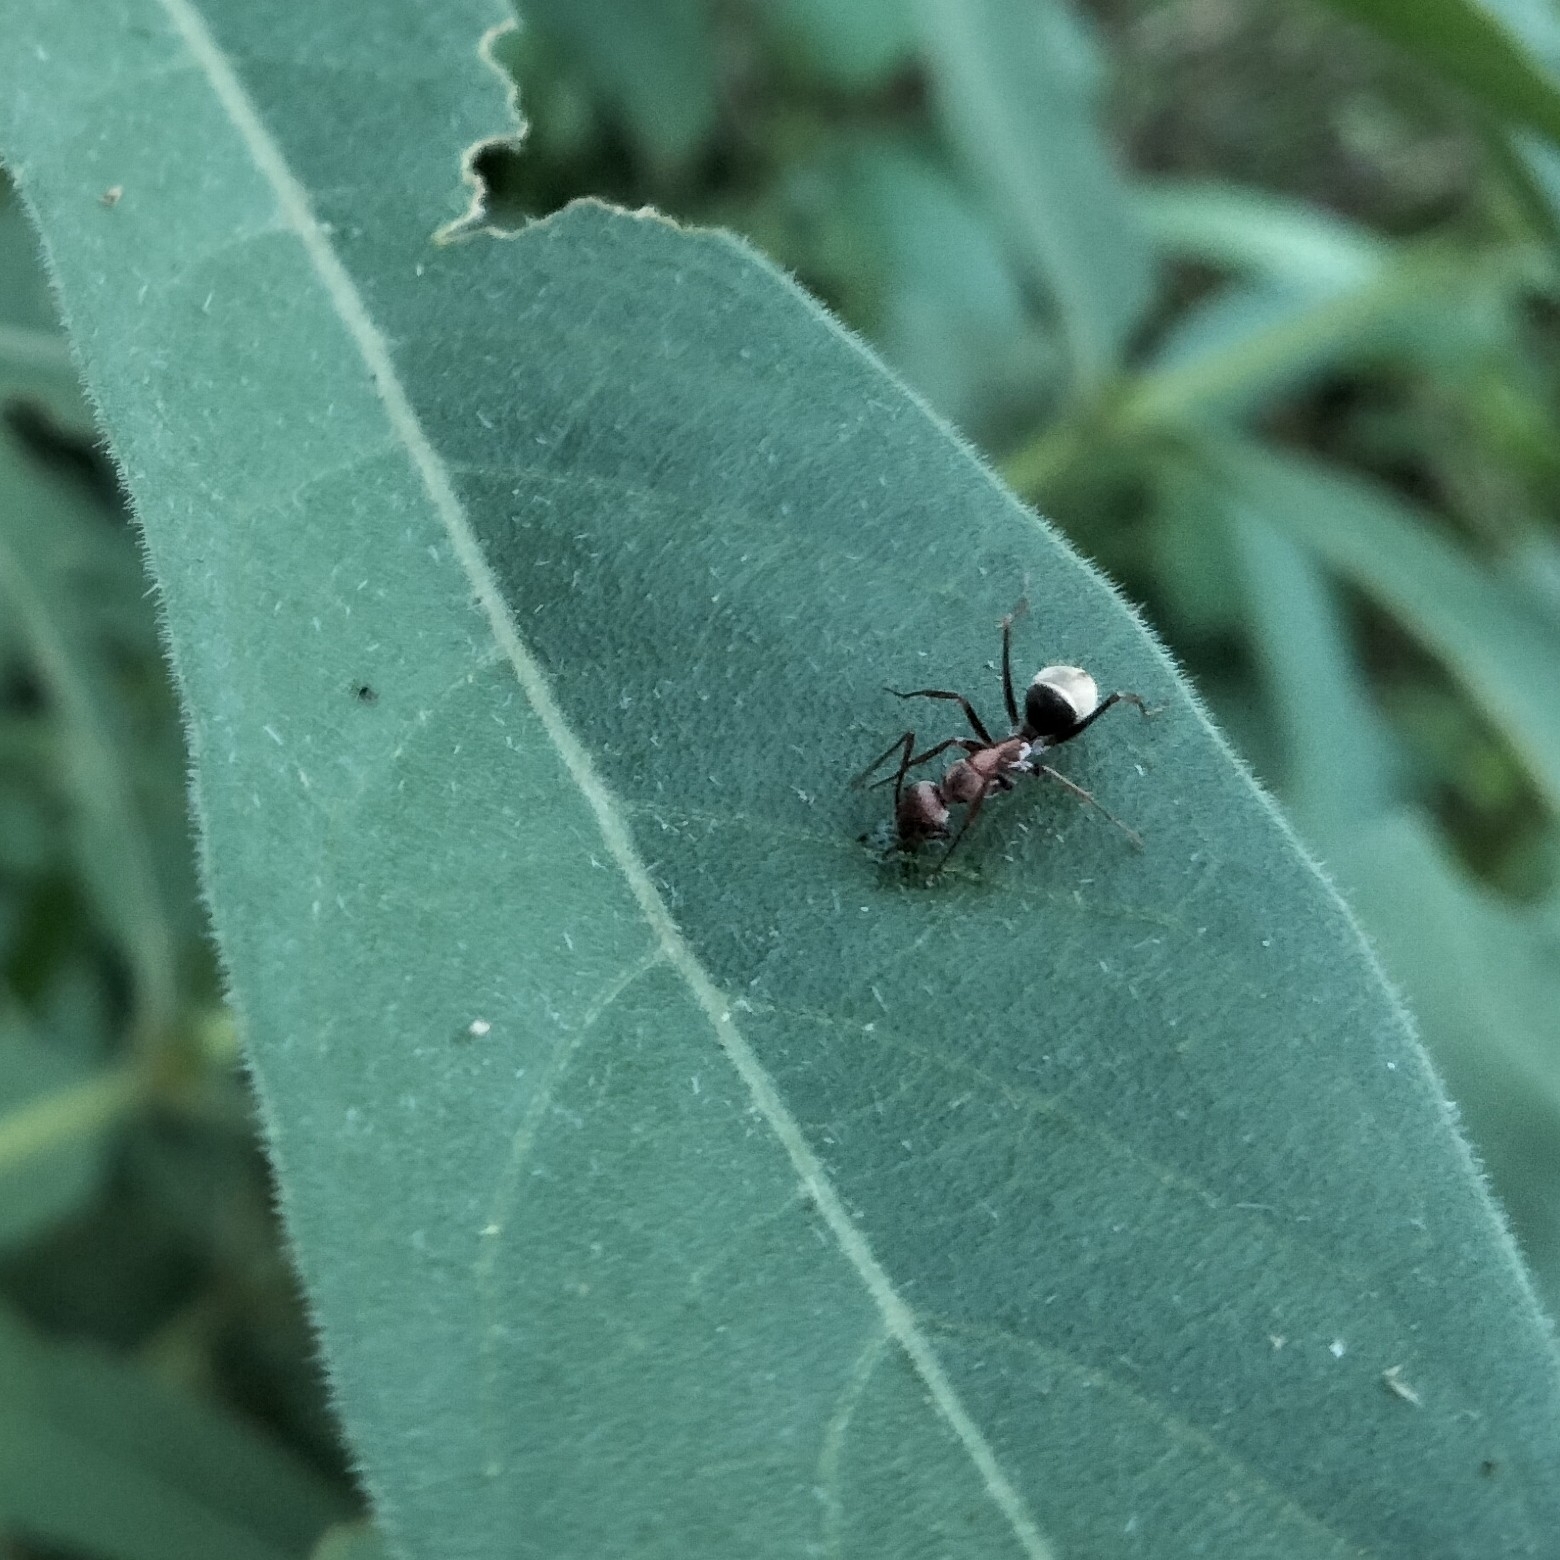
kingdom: Animalia
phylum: Arthropoda
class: Insecta
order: Hymenoptera
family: Formicidae
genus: Camponotus
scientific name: Camponotus rufoglaucus
